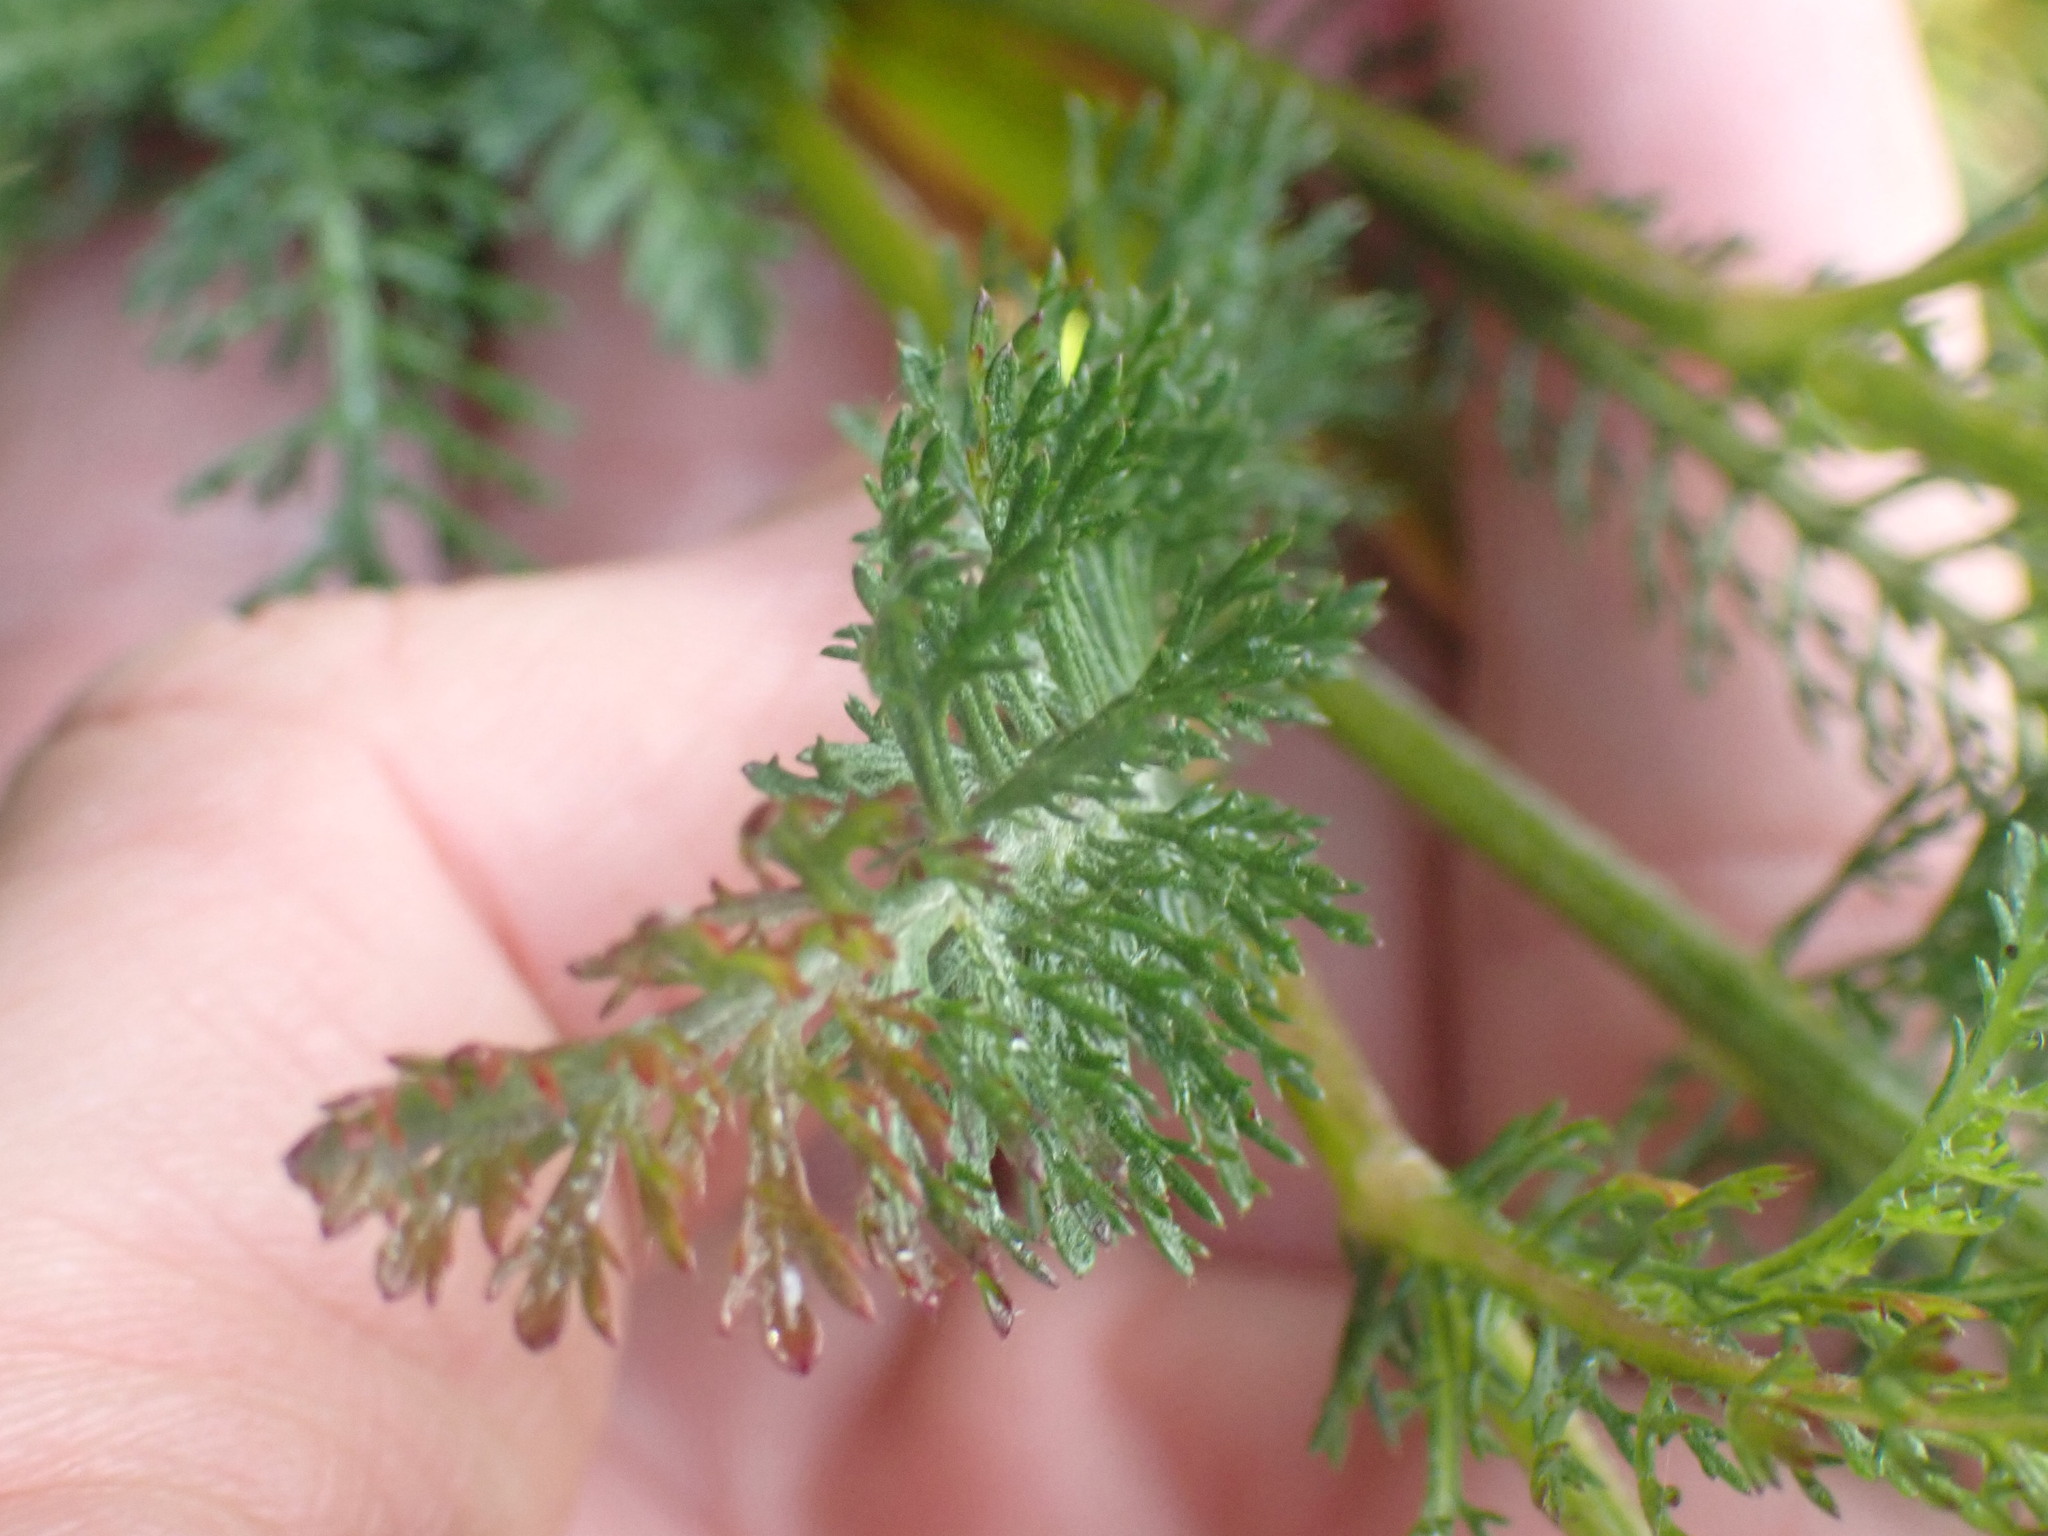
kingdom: Plantae
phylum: Tracheophyta
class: Magnoliopsida
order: Asterales
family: Asteraceae
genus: Achillea
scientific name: Achillea millefolium
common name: Yarrow
